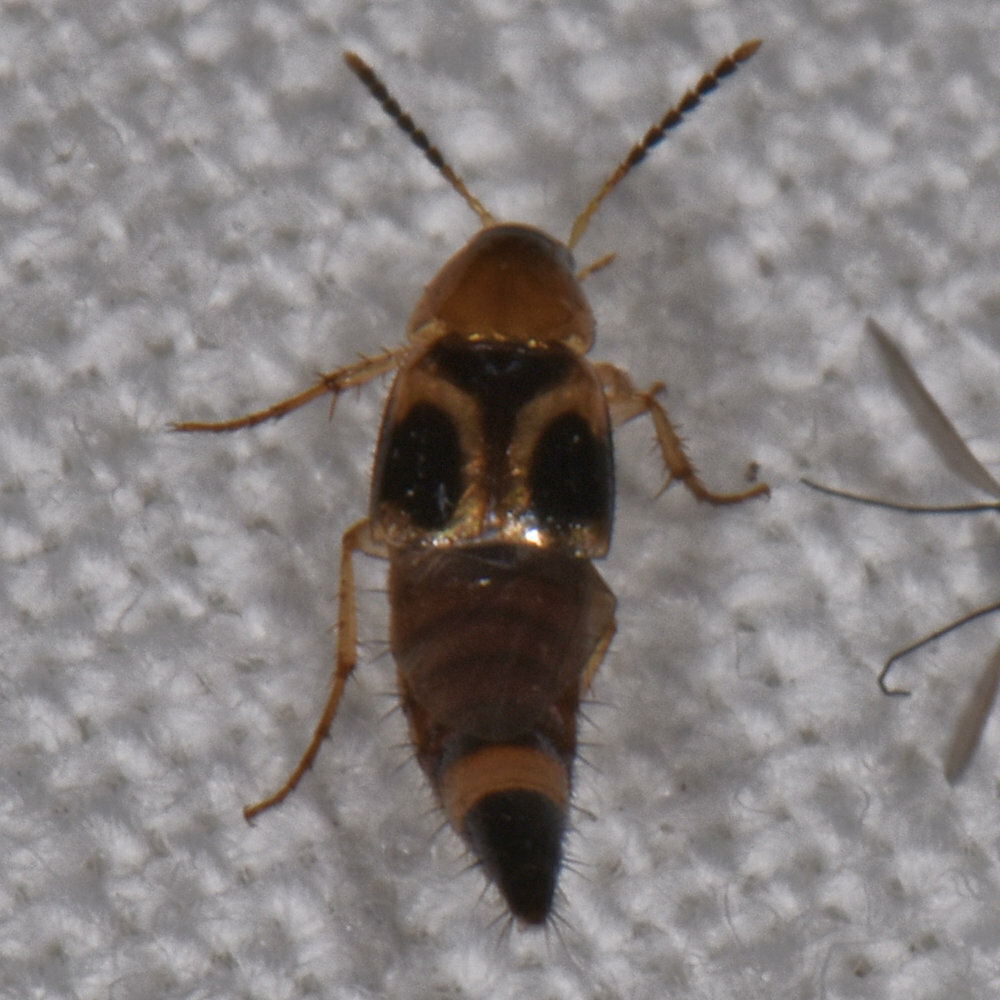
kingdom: Animalia
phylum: Arthropoda
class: Insecta
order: Coleoptera
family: Staphylinidae
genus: Bobitobus
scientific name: Bobitobus fungicola
